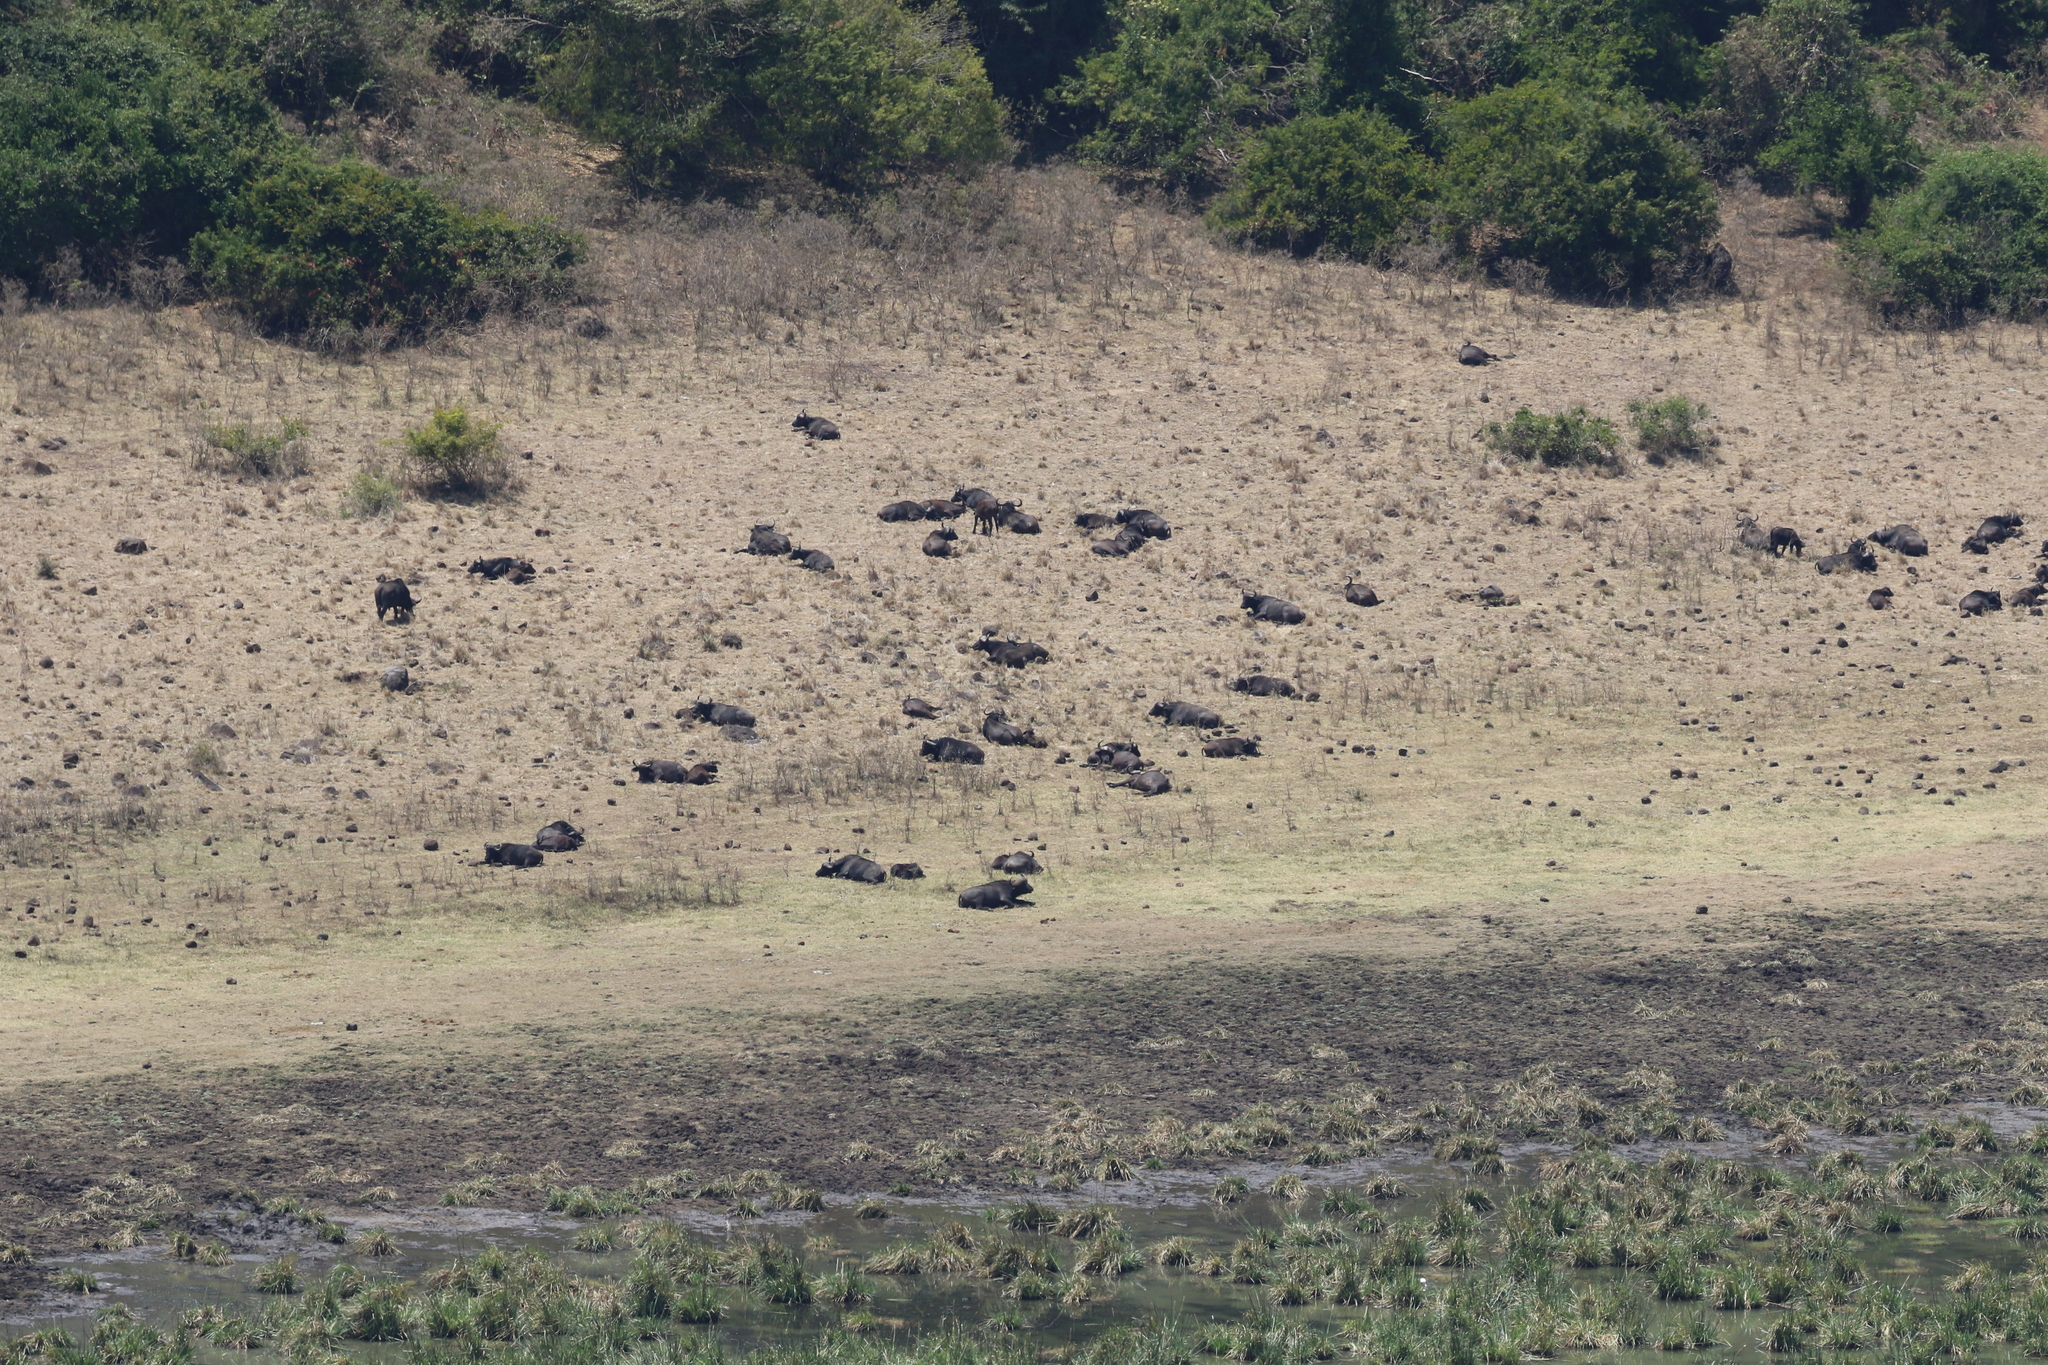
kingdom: Animalia
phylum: Chordata
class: Mammalia
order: Artiodactyla
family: Bovidae
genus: Syncerus
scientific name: Syncerus caffer
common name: African buffalo
